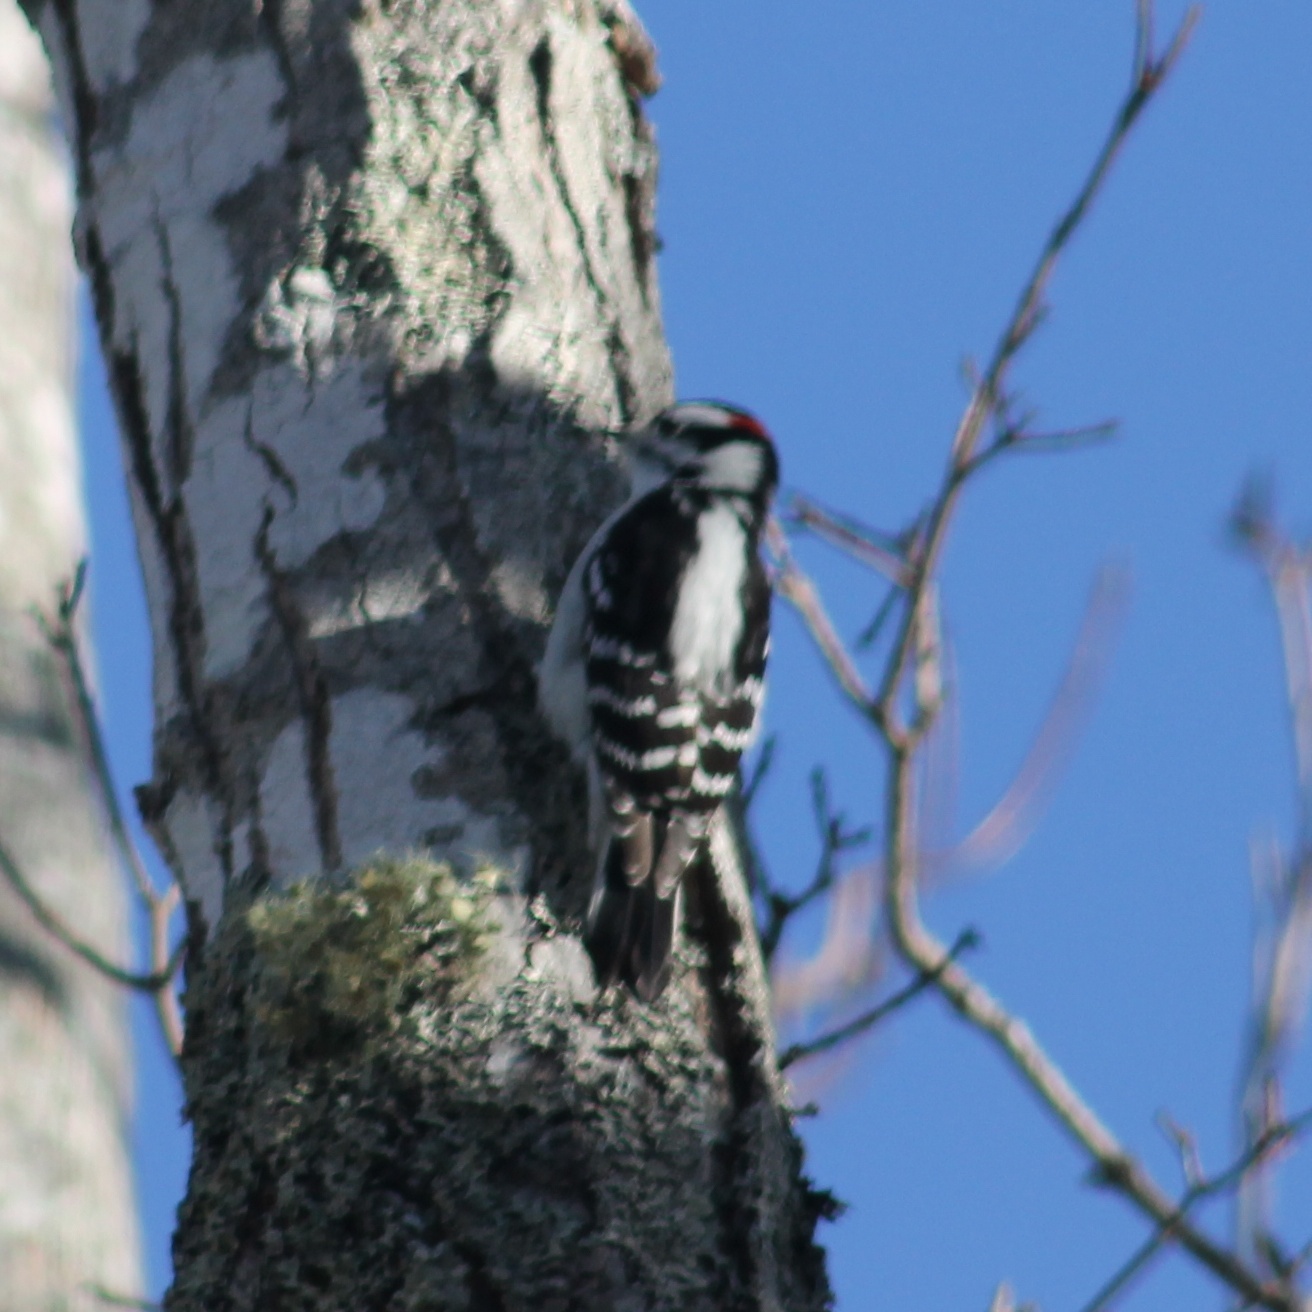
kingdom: Animalia
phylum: Chordata
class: Aves
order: Piciformes
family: Picidae
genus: Dryobates
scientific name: Dryobates pubescens
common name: Downy woodpecker
